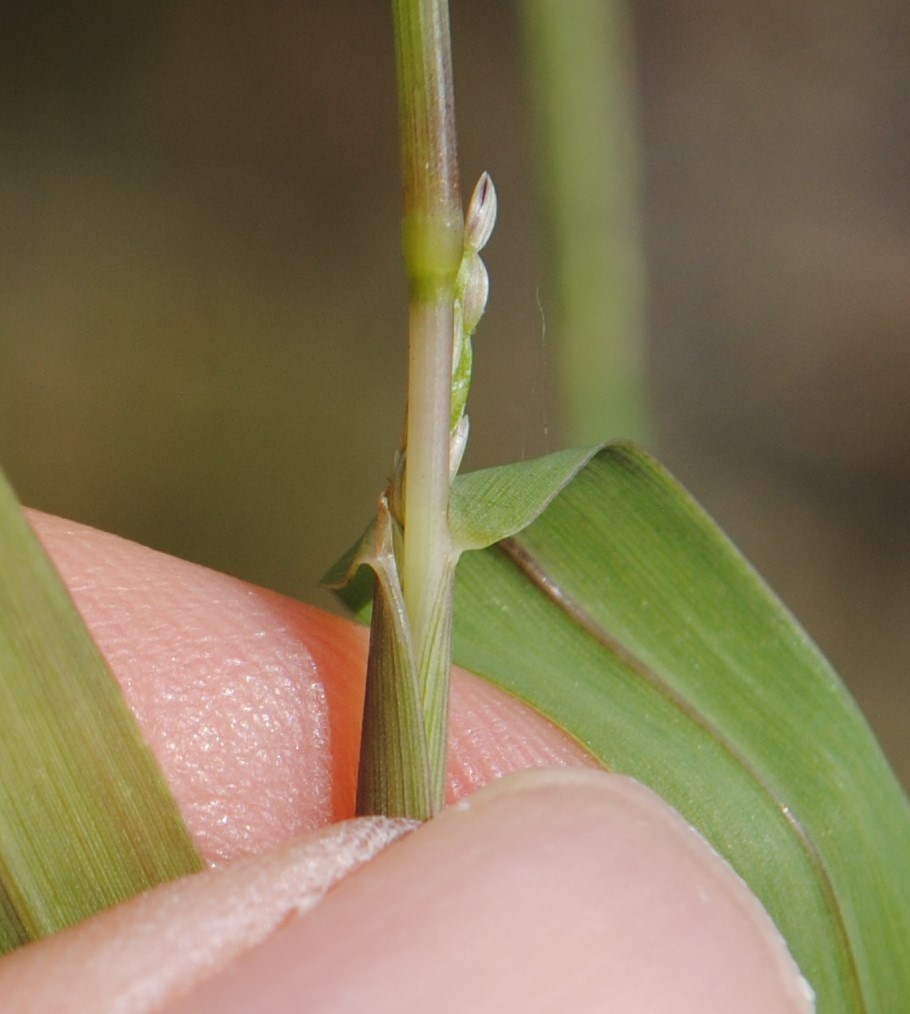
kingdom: Plantae
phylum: Tracheophyta
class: Liliopsida
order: Poales
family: Poaceae
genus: Digitaria
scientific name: Digitaria ischaemum
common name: Smooth crabgrass
